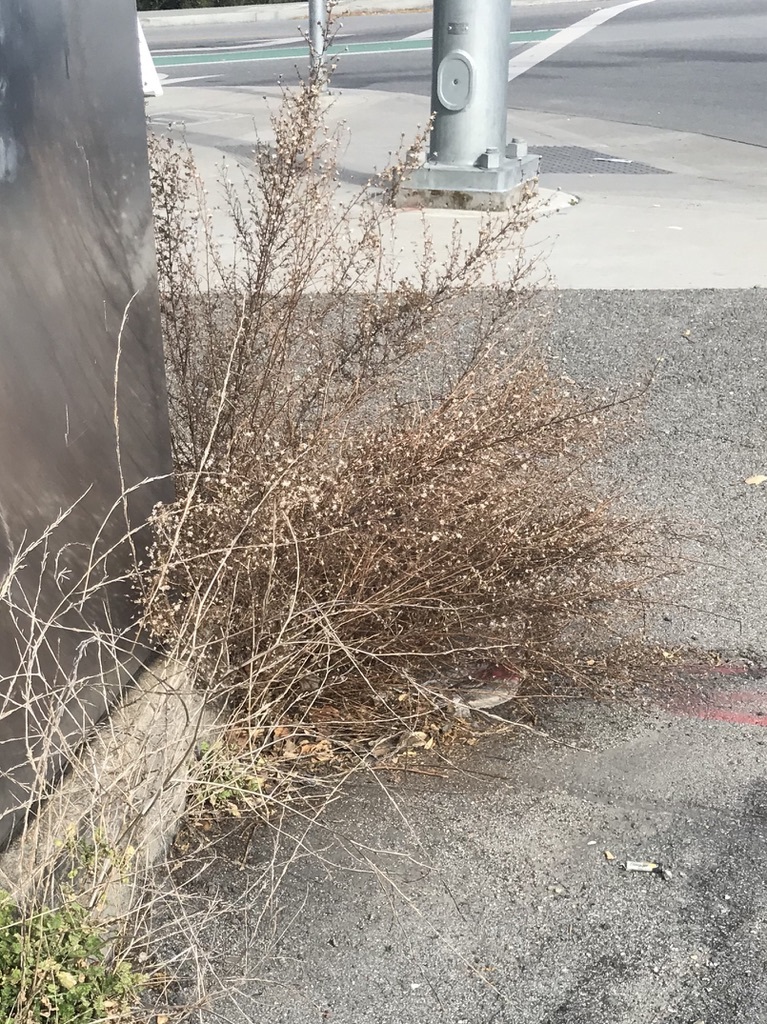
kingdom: Plantae
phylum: Tracheophyta
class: Magnoliopsida
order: Asterales
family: Asteraceae
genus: Dittrichia
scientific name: Dittrichia graveolens
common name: Stinking fleabane
